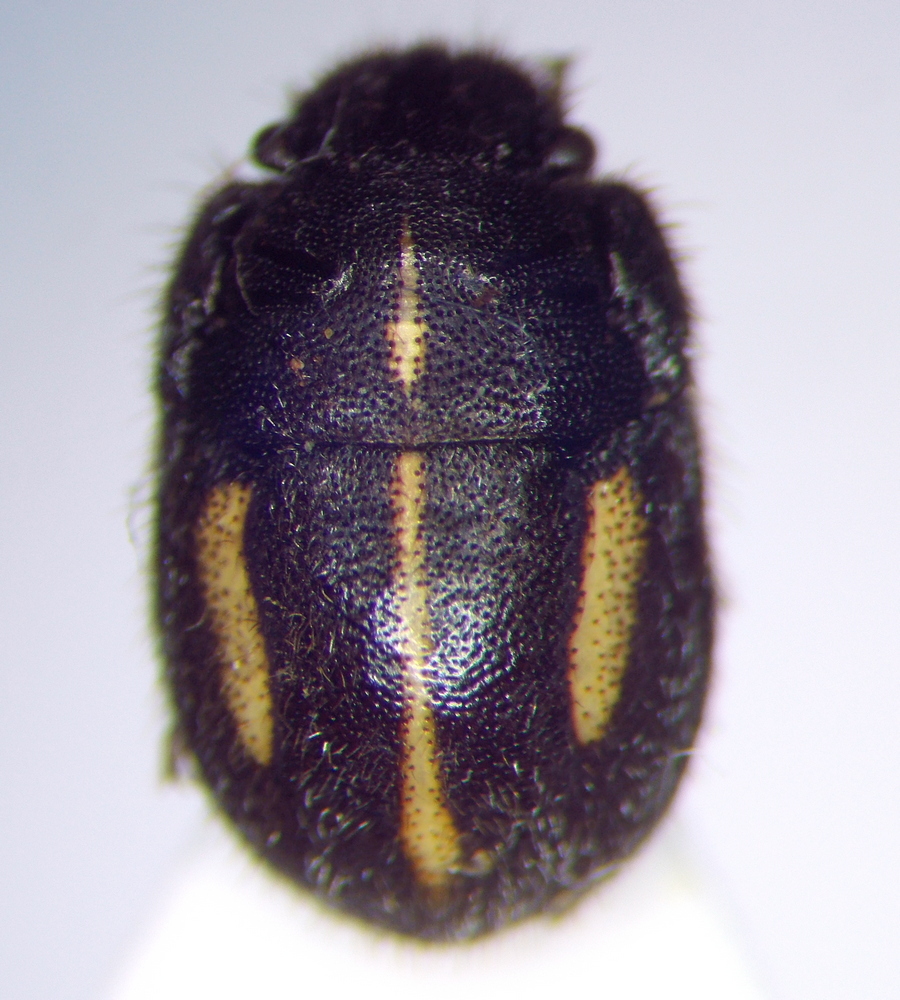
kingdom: Animalia
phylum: Arthropoda
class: Insecta
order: Hemiptera
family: Scutelleridae
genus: Odontoscelis
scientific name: Odontoscelis minuta
